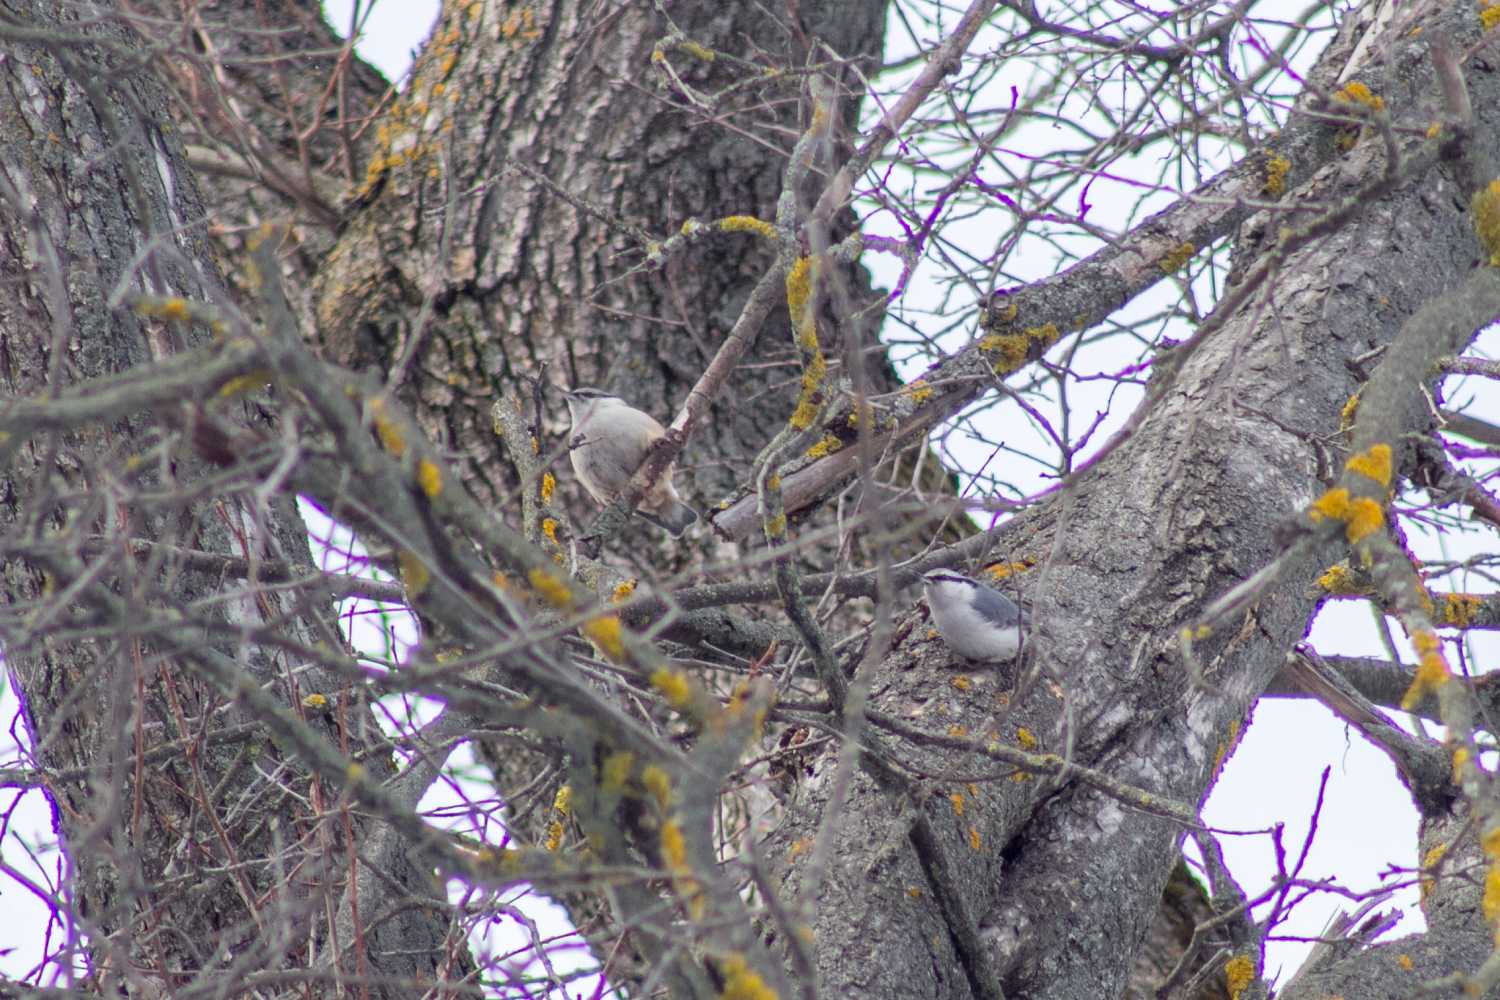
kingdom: Animalia
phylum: Chordata
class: Aves
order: Passeriformes
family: Sittidae
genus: Sitta
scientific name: Sitta europaea
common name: Eurasian nuthatch
